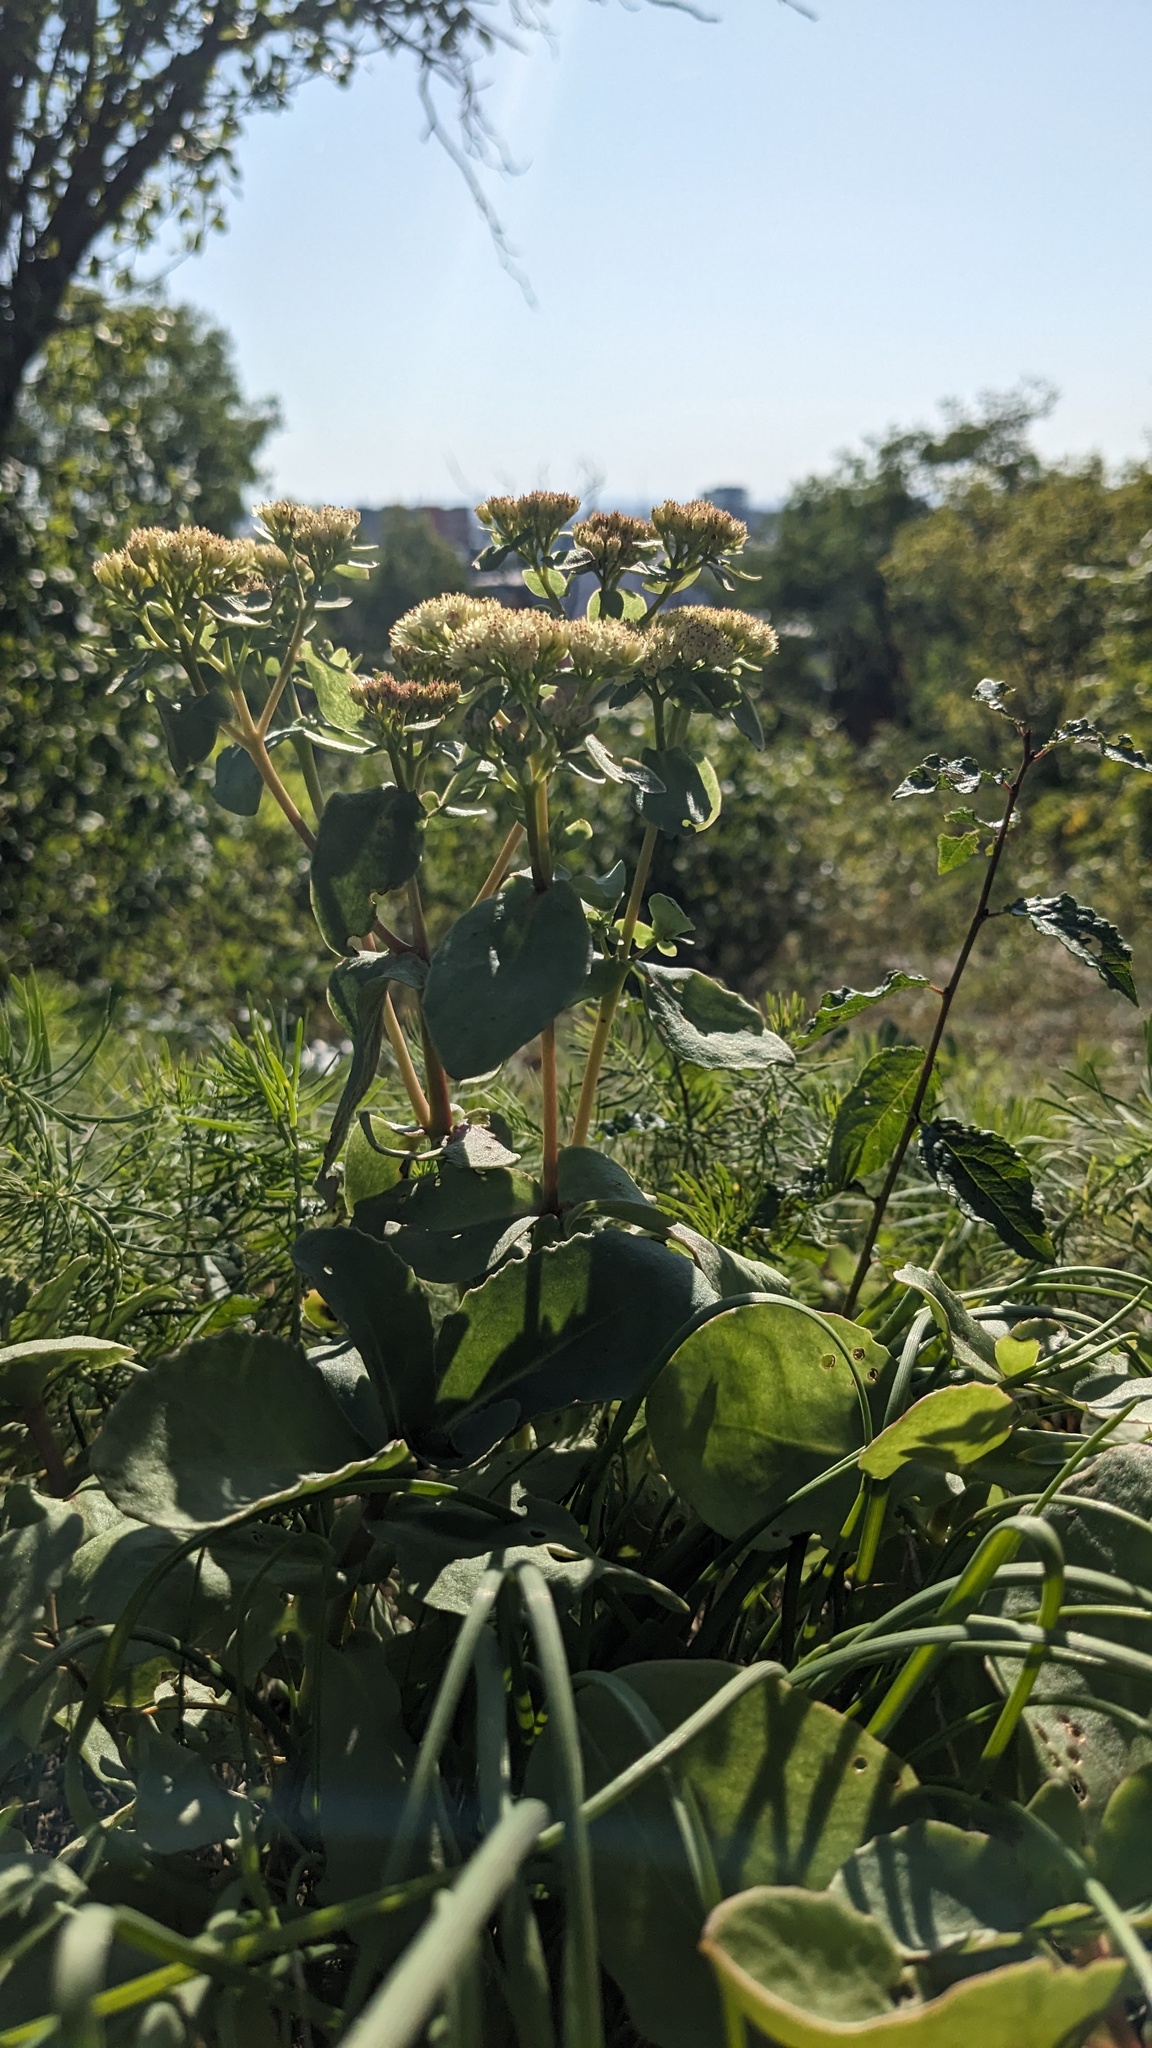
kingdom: Plantae
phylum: Tracheophyta
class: Magnoliopsida
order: Saxifragales
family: Crassulaceae
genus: Hylotelephium
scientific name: Hylotelephium maximum
